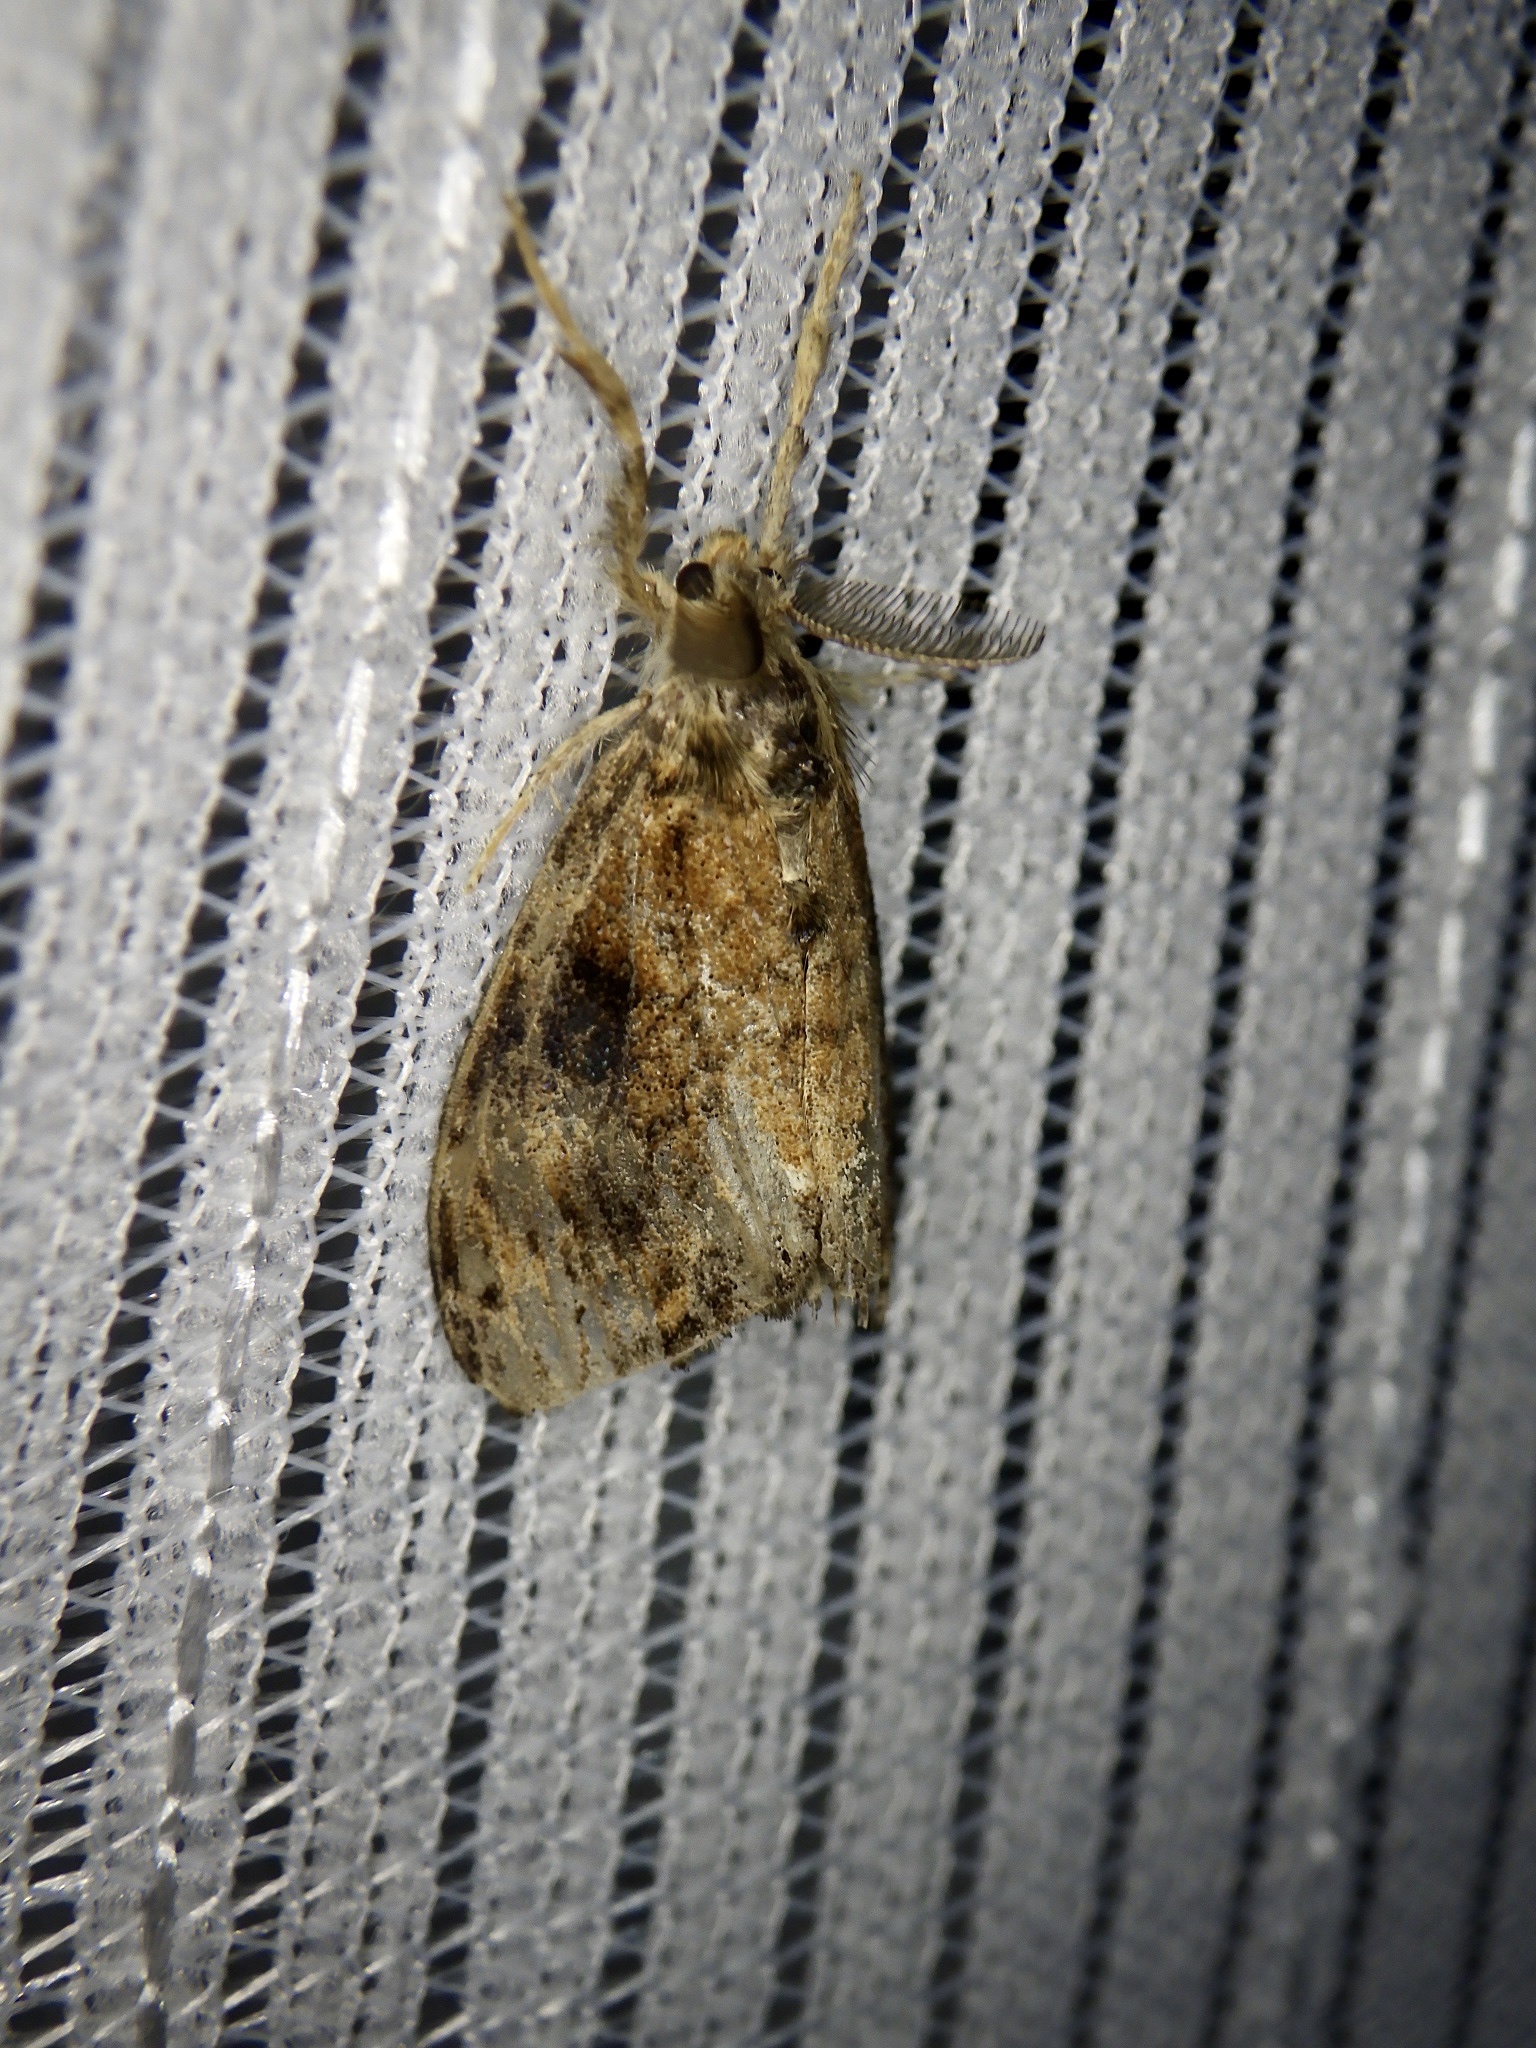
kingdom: Animalia
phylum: Arthropoda
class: Insecta
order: Lepidoptera
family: Erebidae
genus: Orgyia
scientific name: Orgyia thyellina
